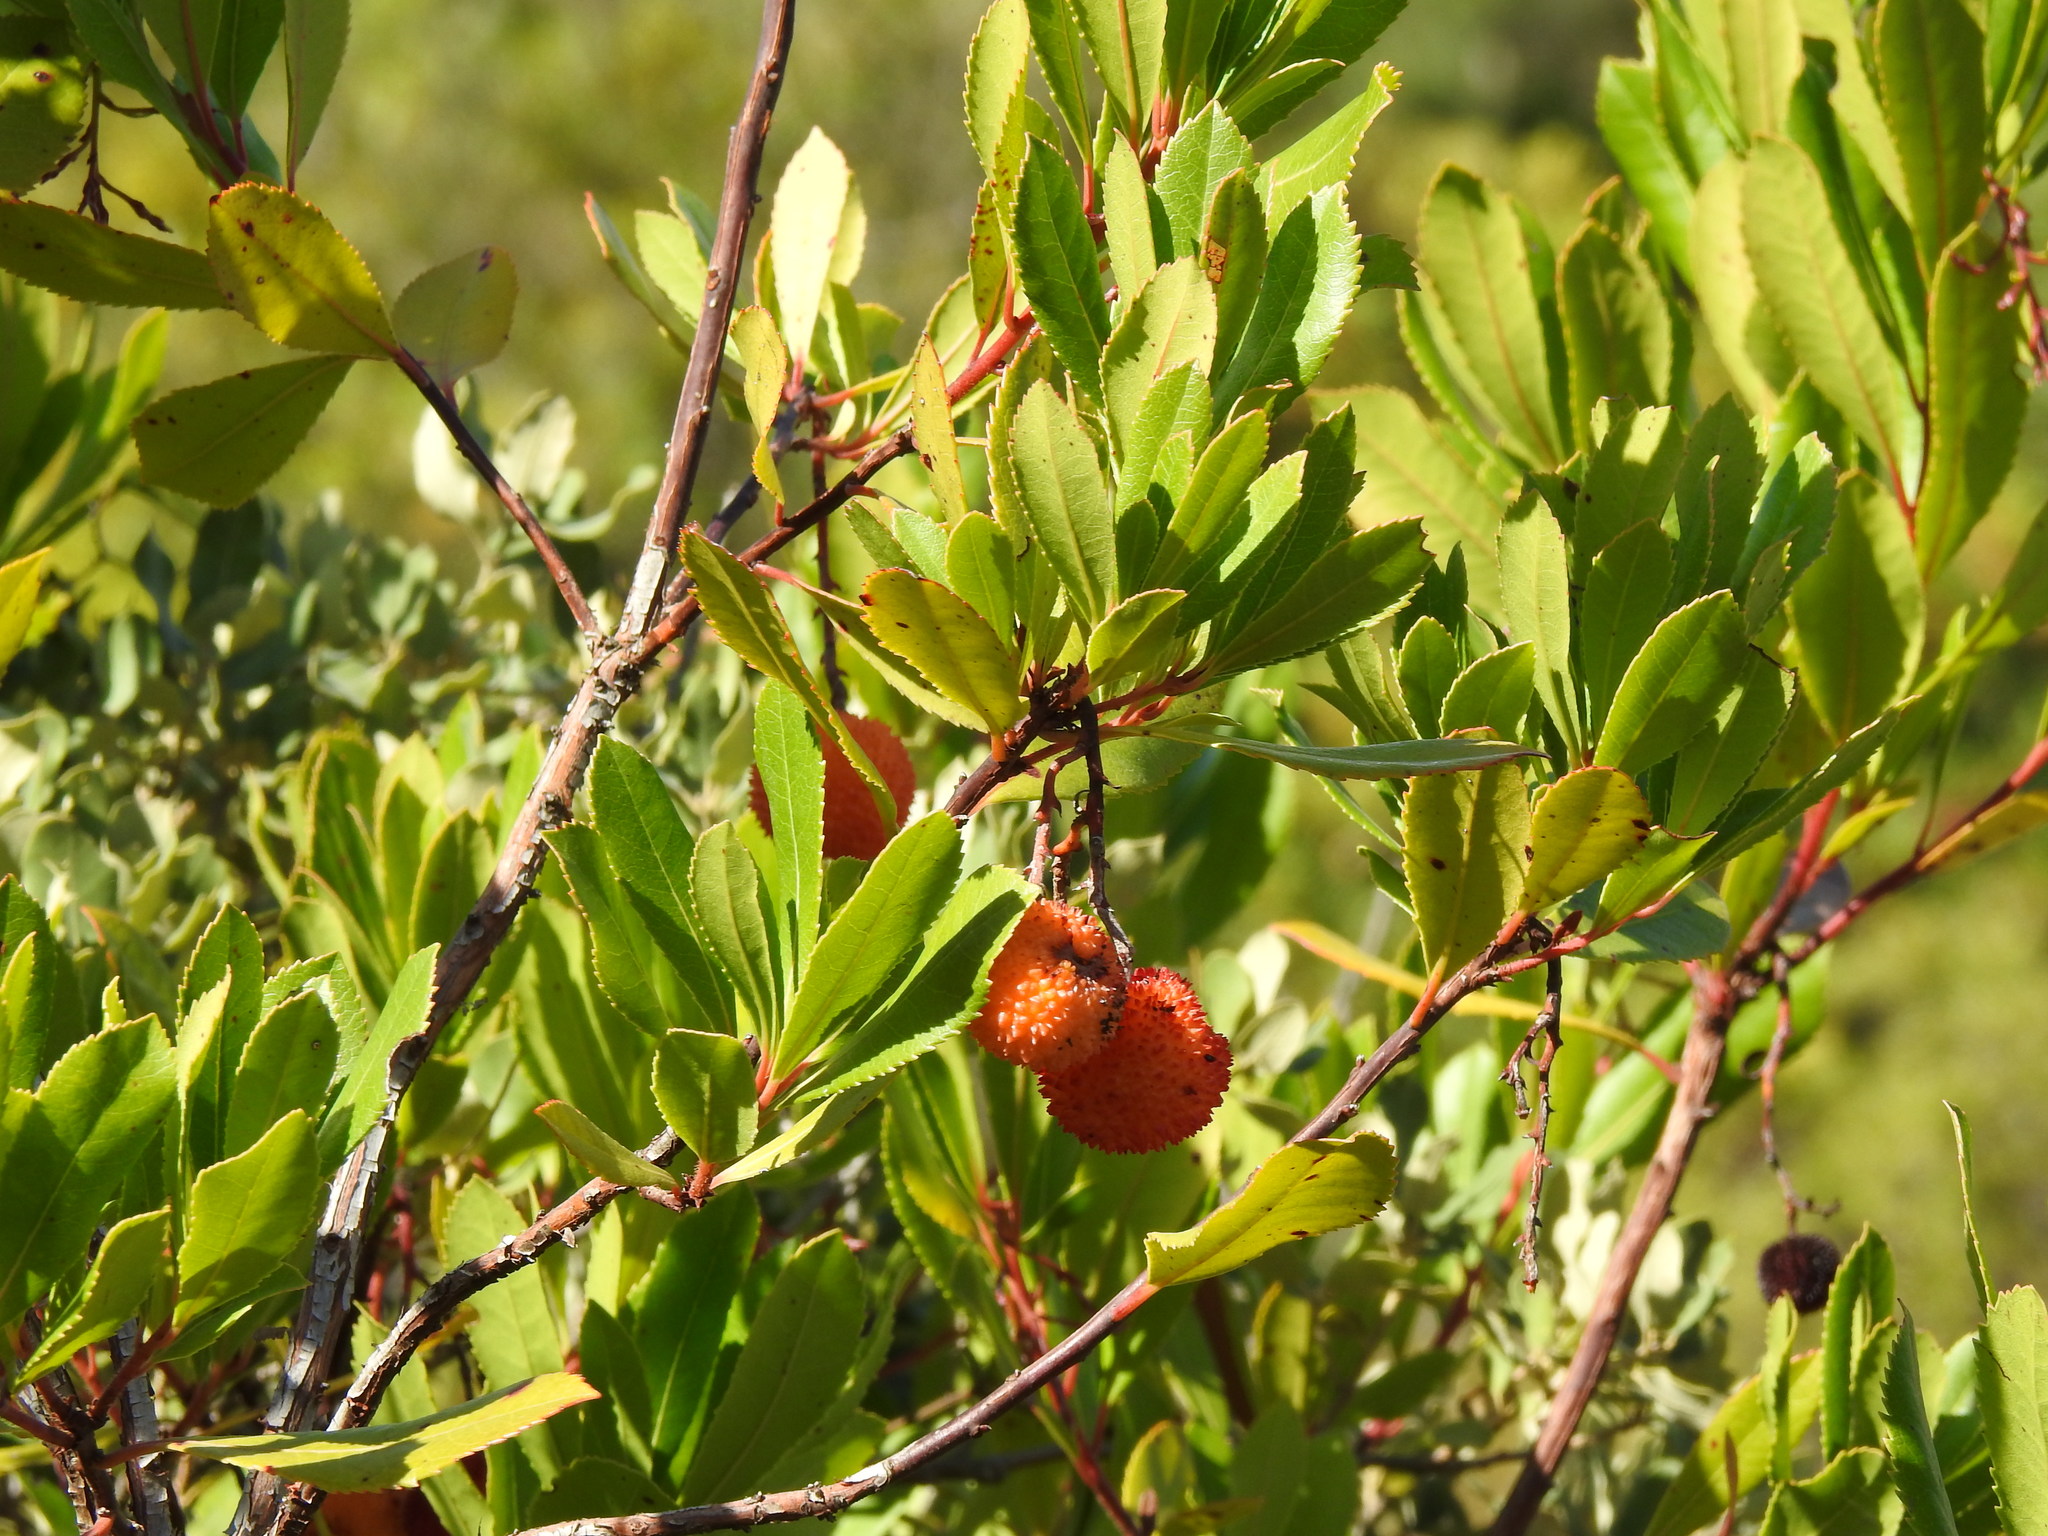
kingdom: Plantae
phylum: Tracheophyta
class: Magnoliopsida
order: Ericales
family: Ericaceae
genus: Arbutus
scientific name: Arbutus unedo
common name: Strawberry-tree
